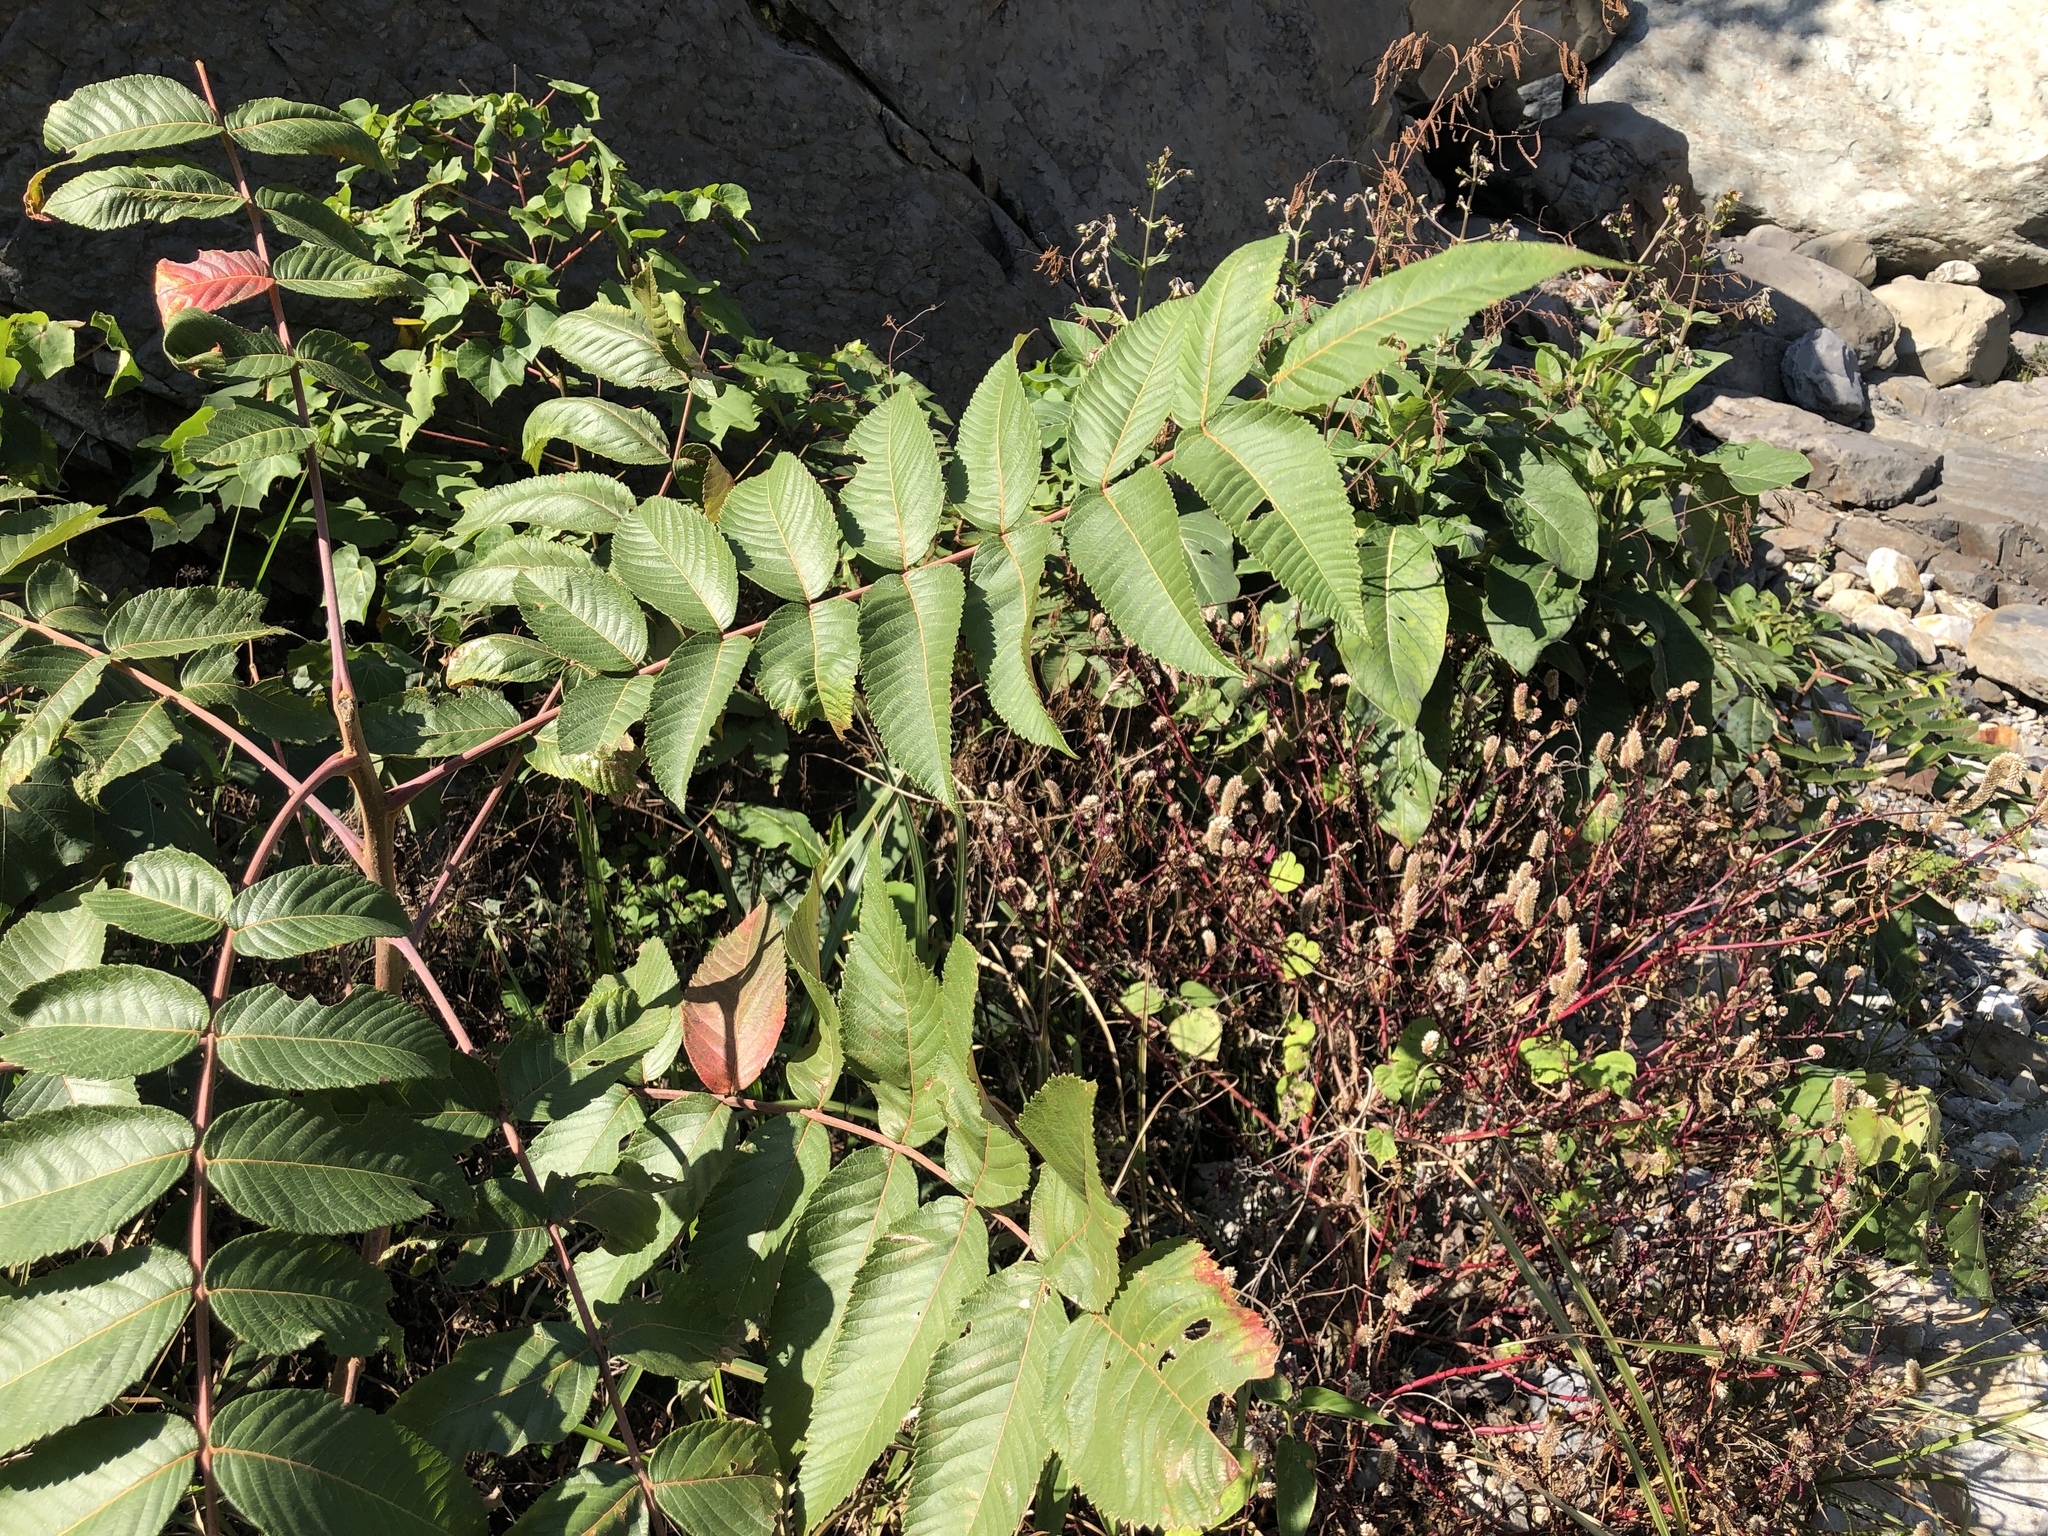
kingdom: Plantae
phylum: Tracheophyta
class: Magnoliopsida
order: Sapindales
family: Anacardiaceae
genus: Rhus
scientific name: Rhus chinensis
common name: Chinese gall
